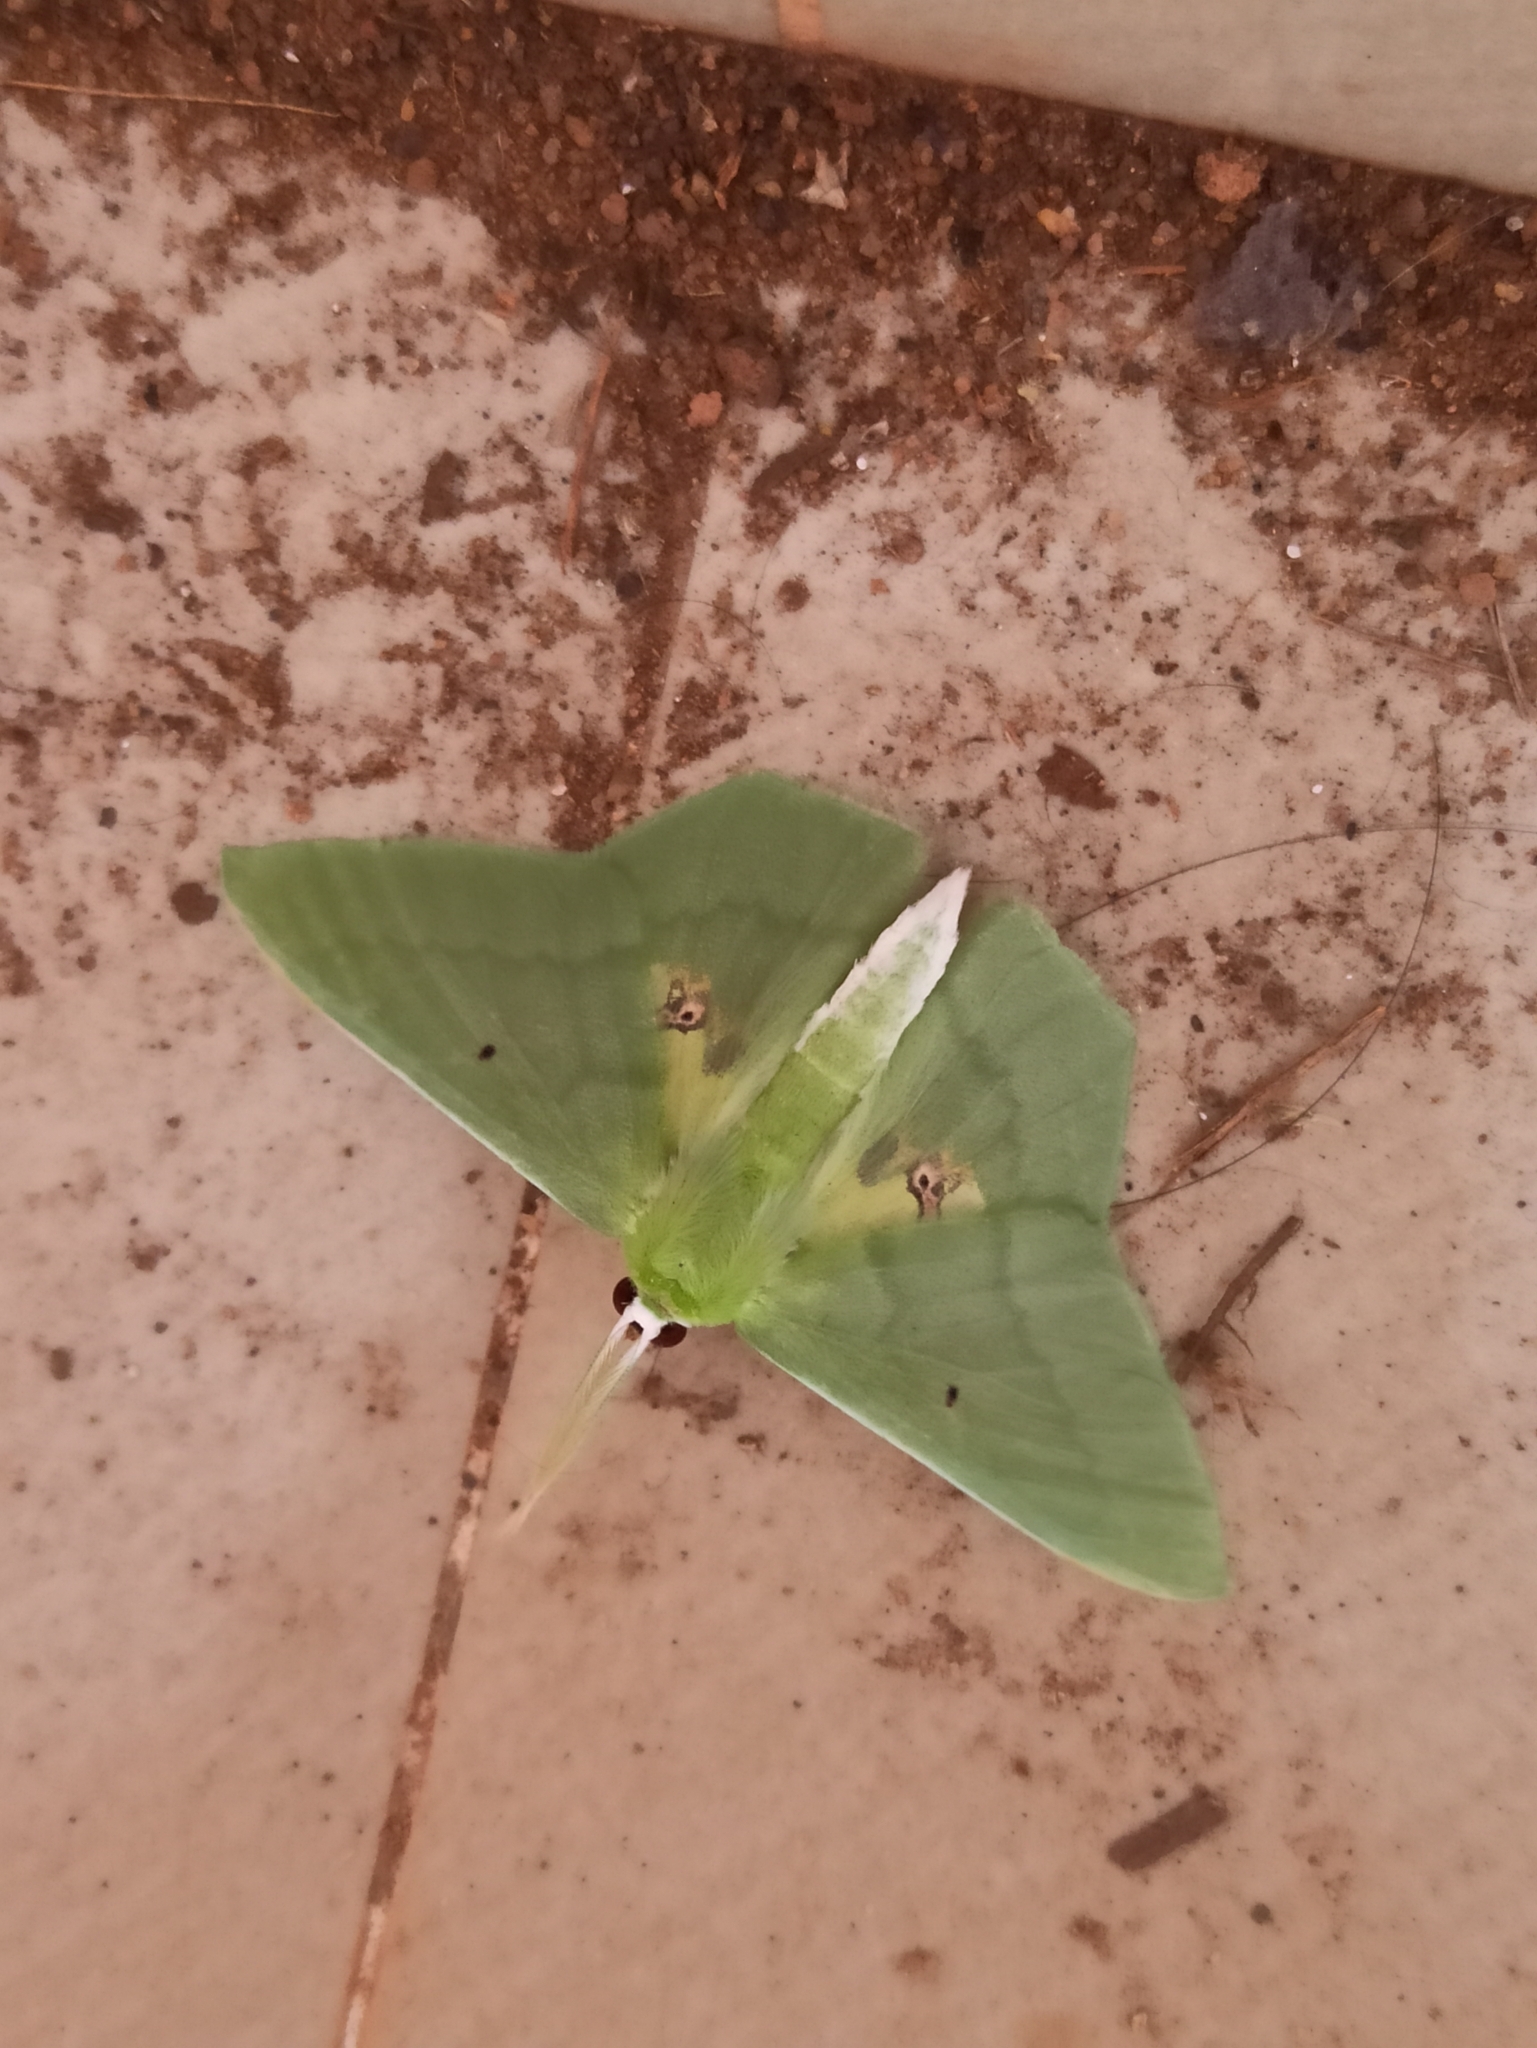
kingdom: Animalia
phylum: Arthropoda
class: Insecta
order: Lepidoptera
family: Geometridae
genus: Aporandria
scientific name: Aporandria specularia
